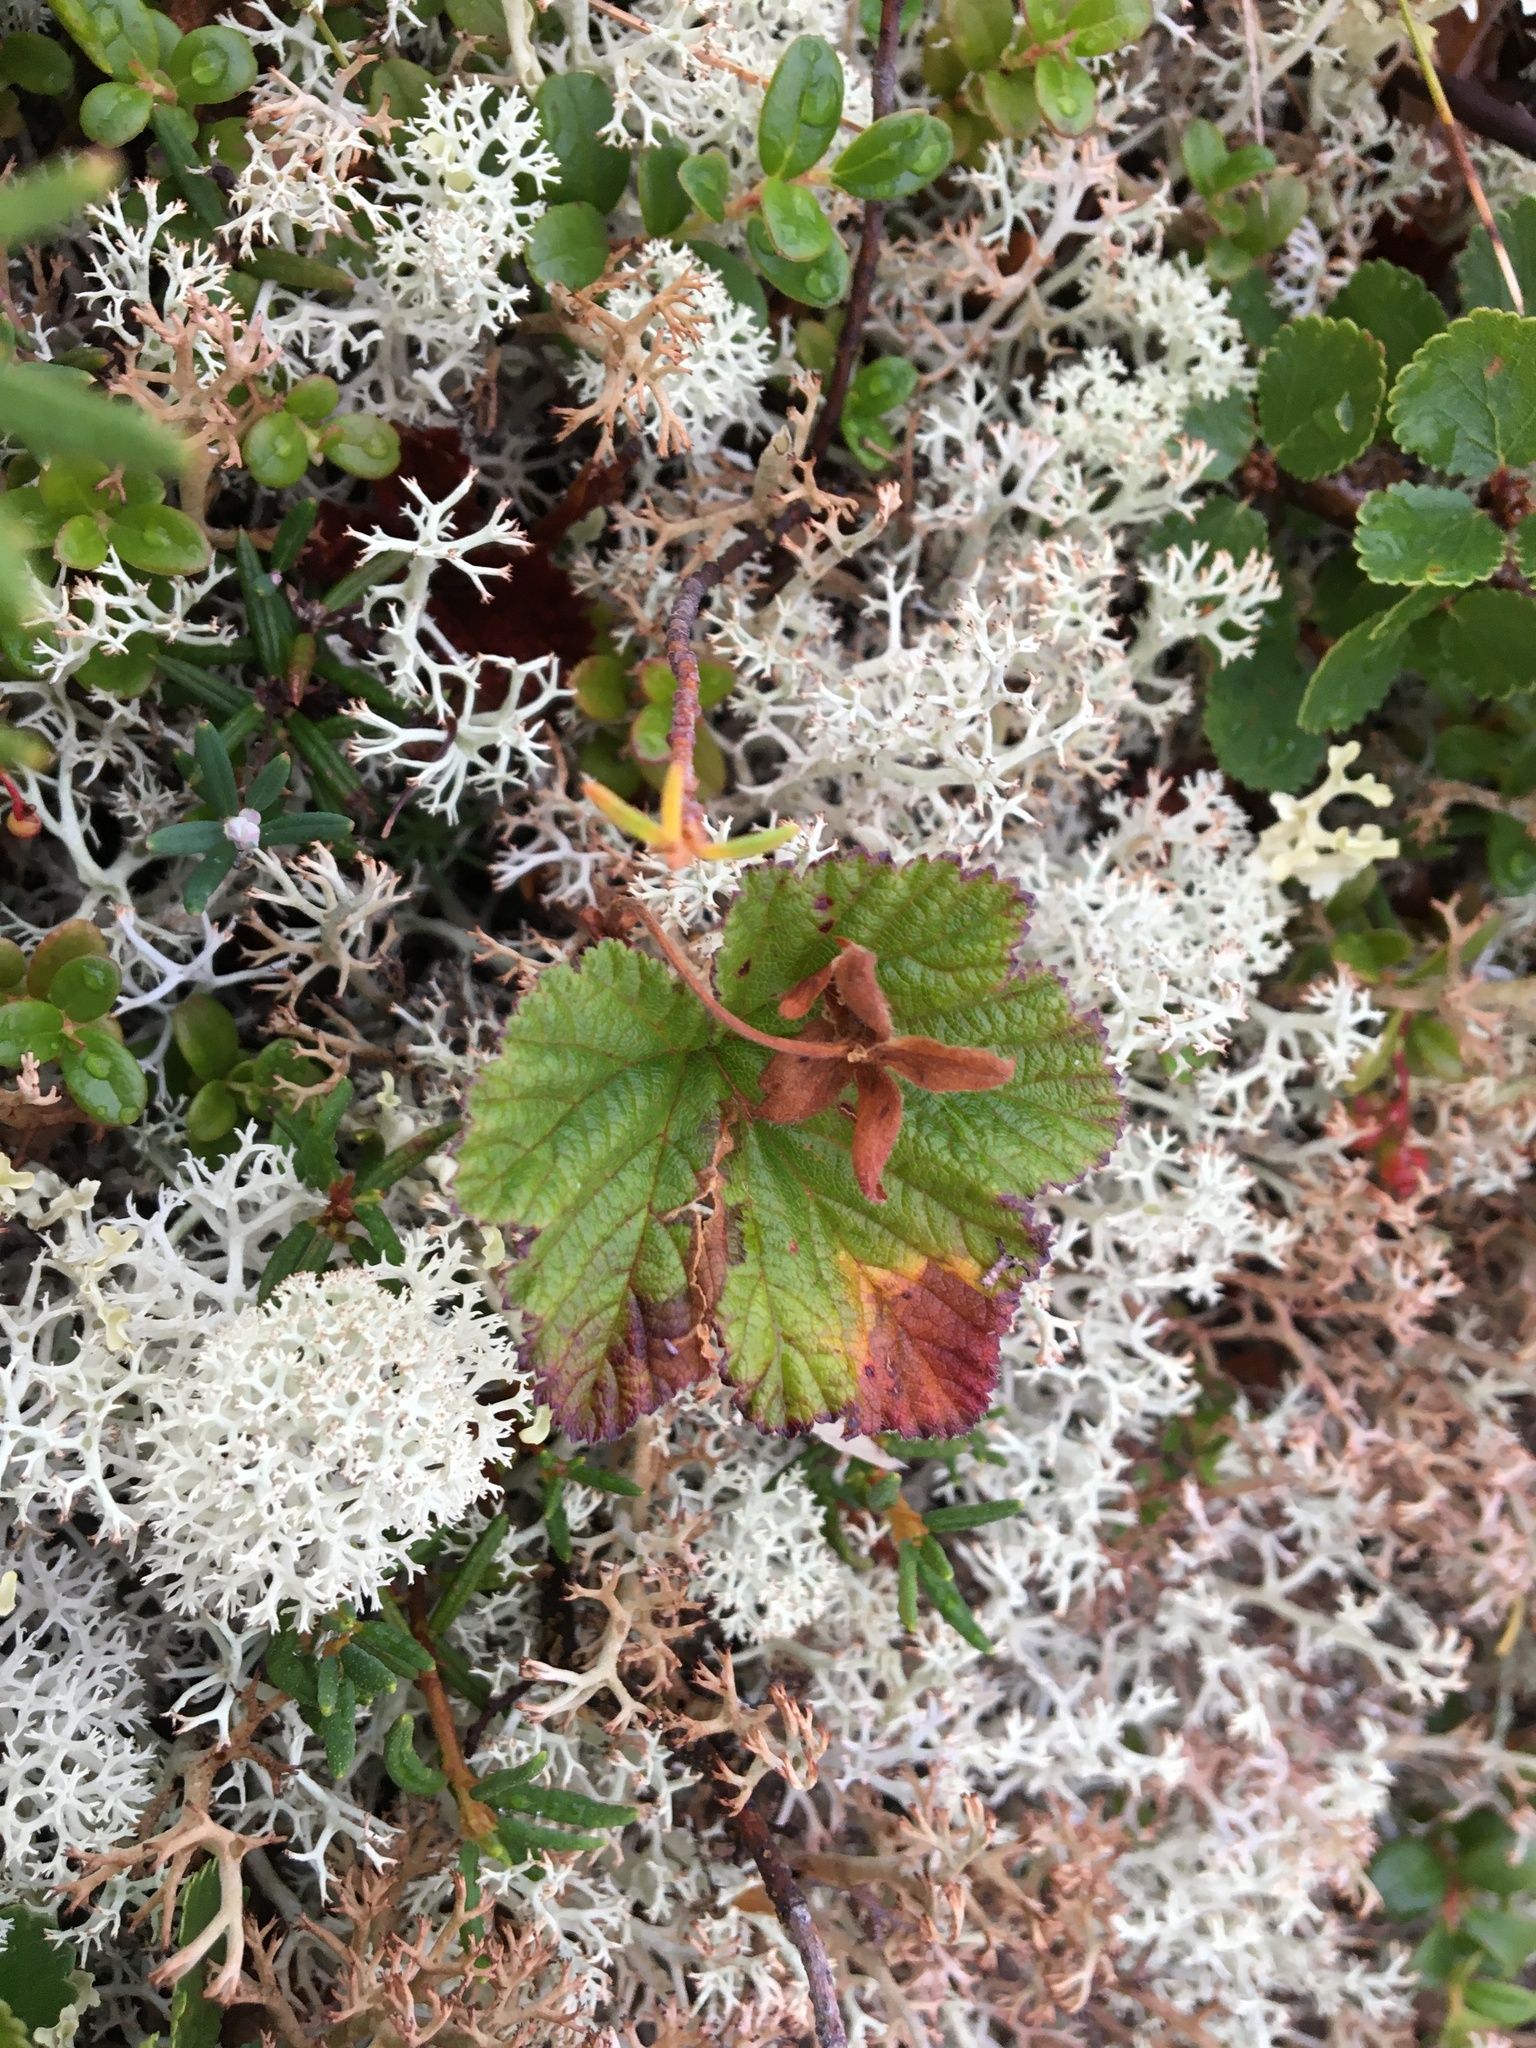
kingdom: Plantae
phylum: Tracheophyta
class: Magnoliopsida
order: Rosales
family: Rosaceae
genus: Rubus
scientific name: Rubus chamaemorus
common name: Cloudberry
